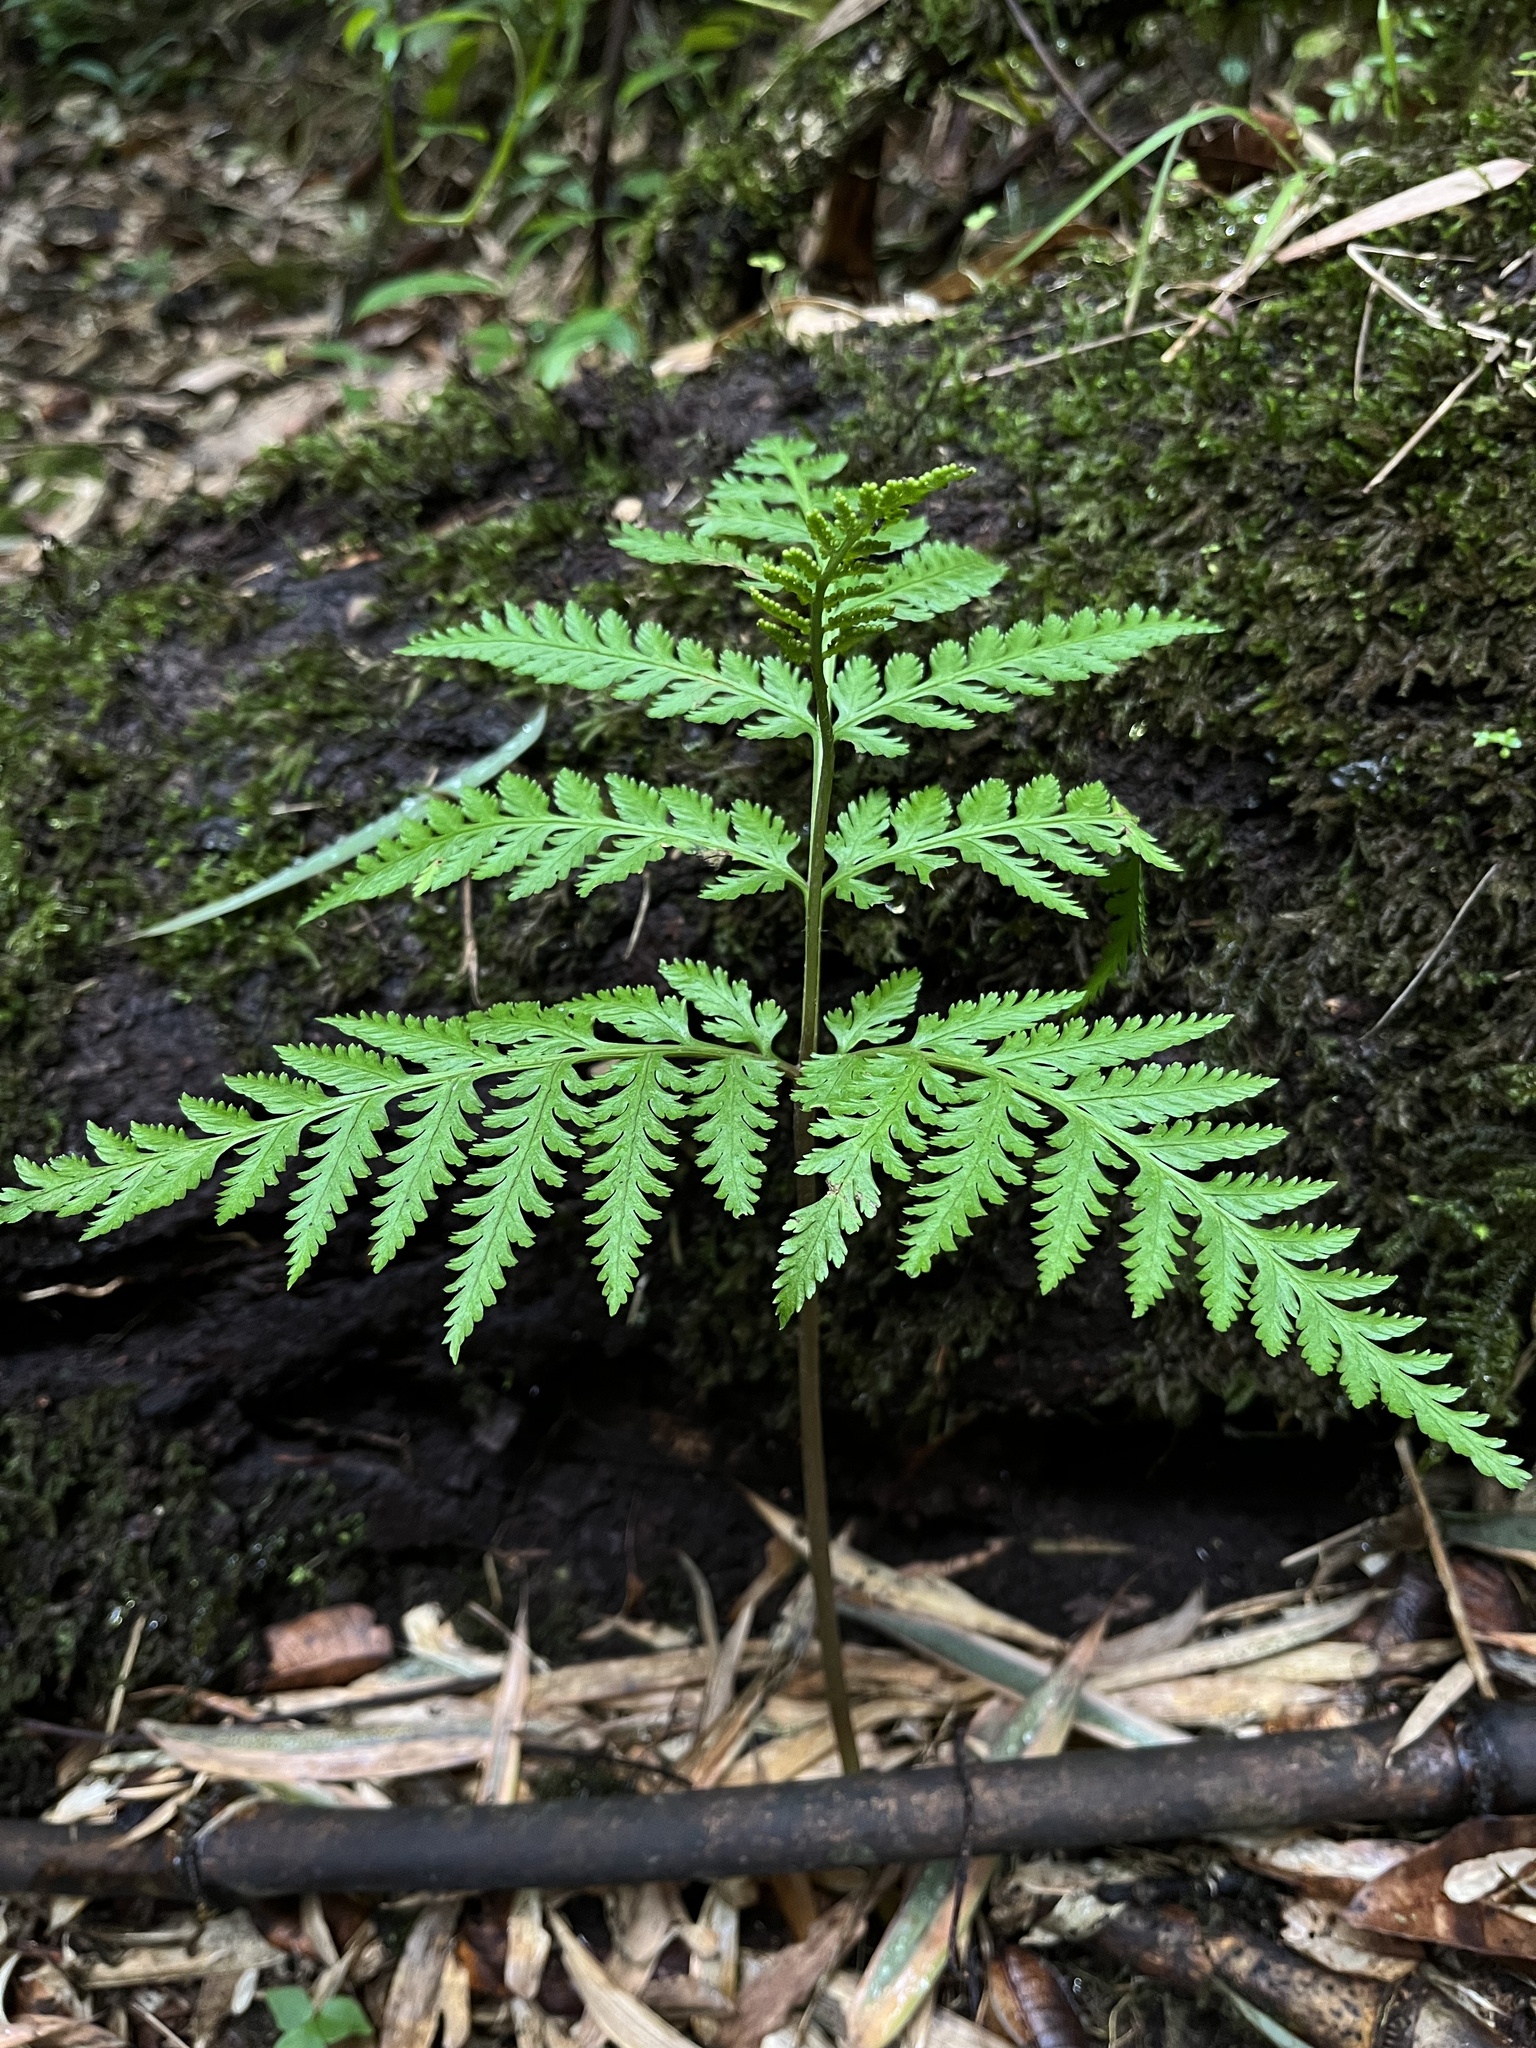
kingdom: Plantae
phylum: Tracheophyta
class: Polypodiopsida
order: Ophioglossales
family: Ophioglossaceae
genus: Botrypus
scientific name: Botrypus virginianus
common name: Common grapefern
